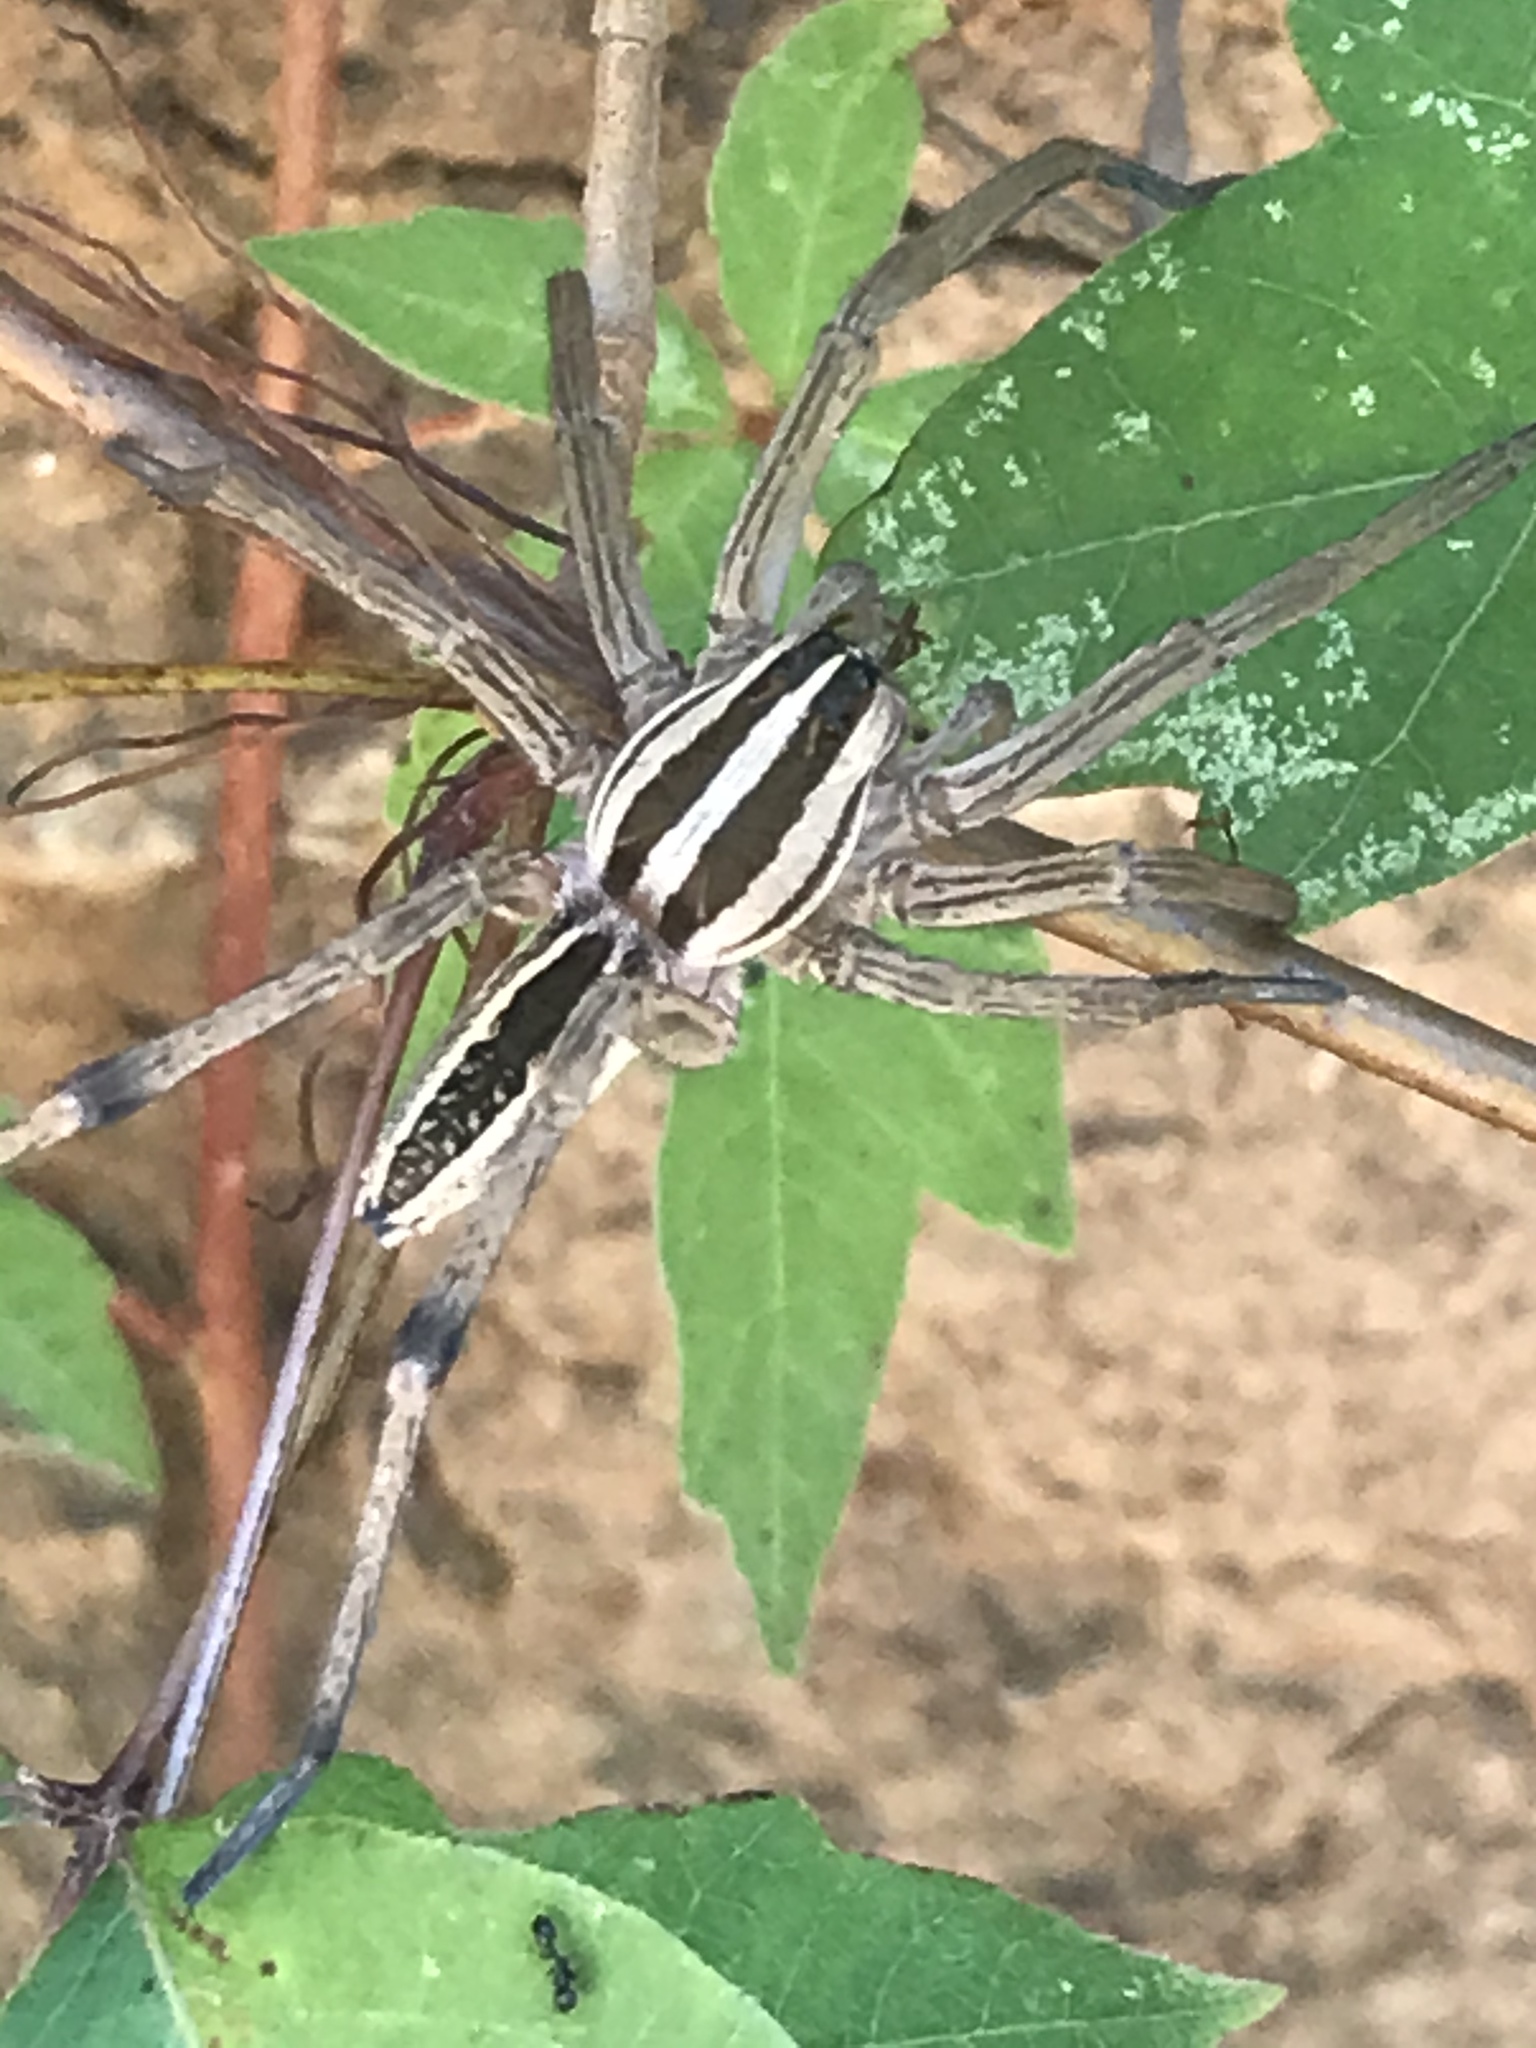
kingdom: Animalia
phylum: Arthropoda
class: Arachnida
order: Araneae
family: Lycosidae
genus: Rabidosa
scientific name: Rabidosa rabida
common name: Rabid wolf spider
